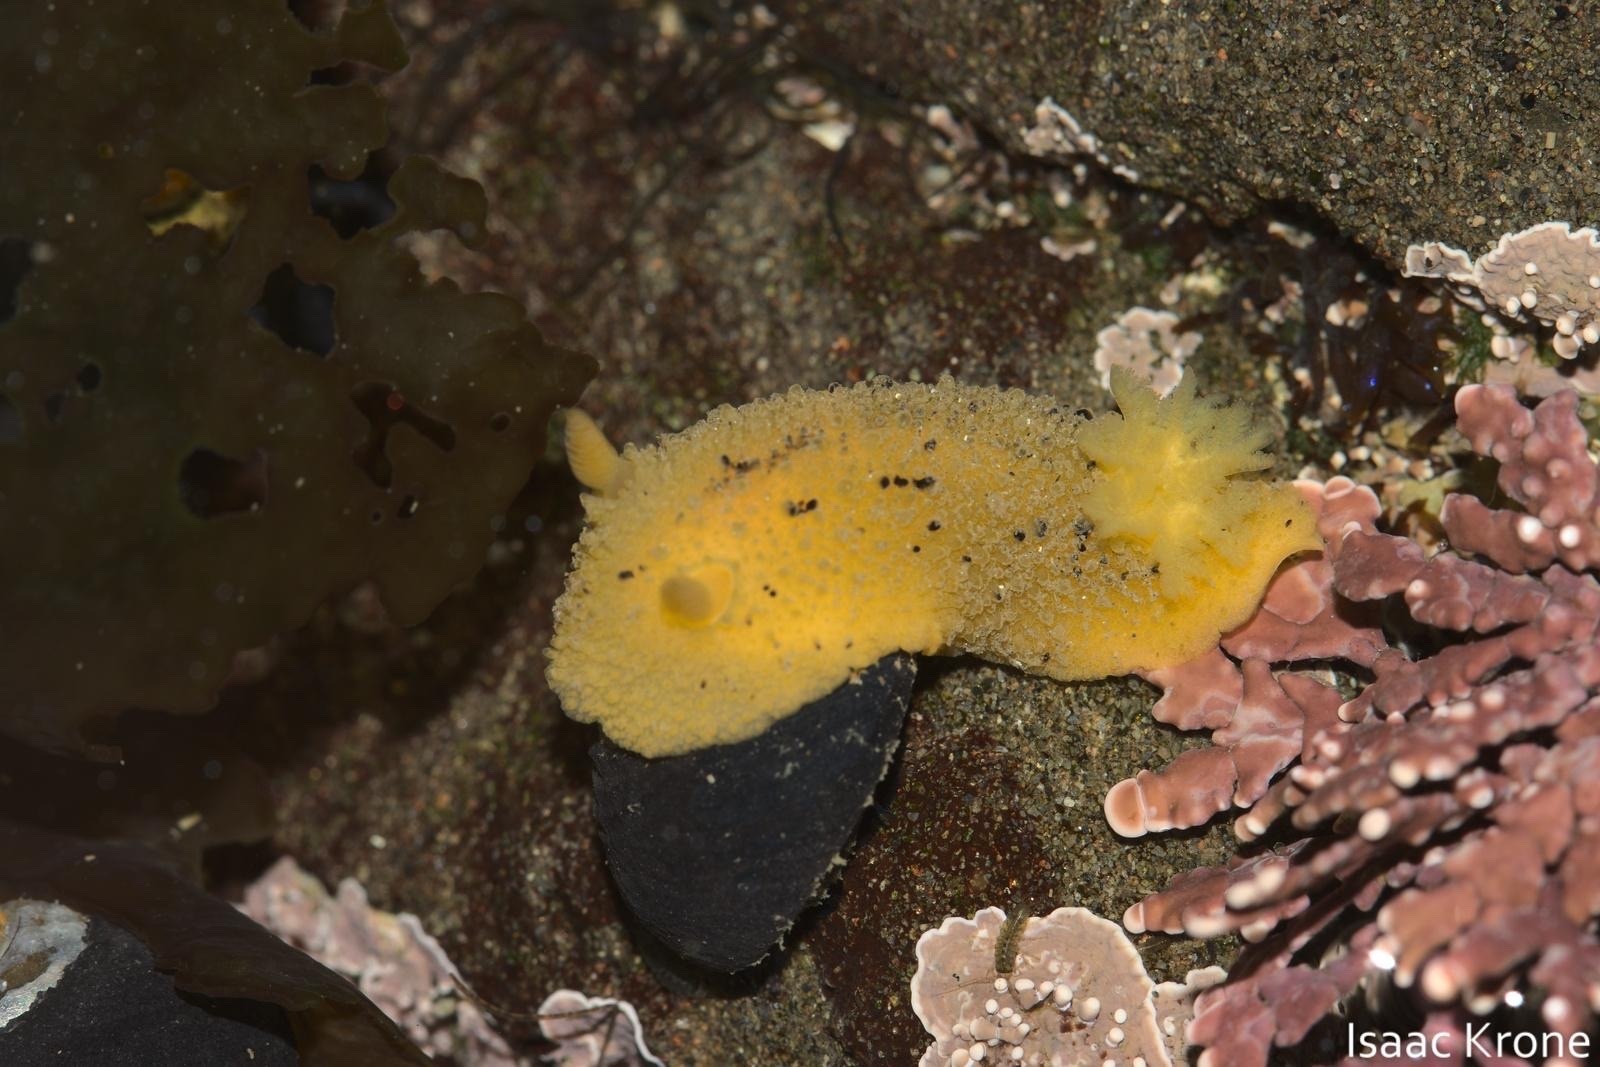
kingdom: Animalia
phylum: Mollusca
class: Gastropoda
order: Nudibranchia
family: Dorididae
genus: Doris
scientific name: Doris montereyensis
